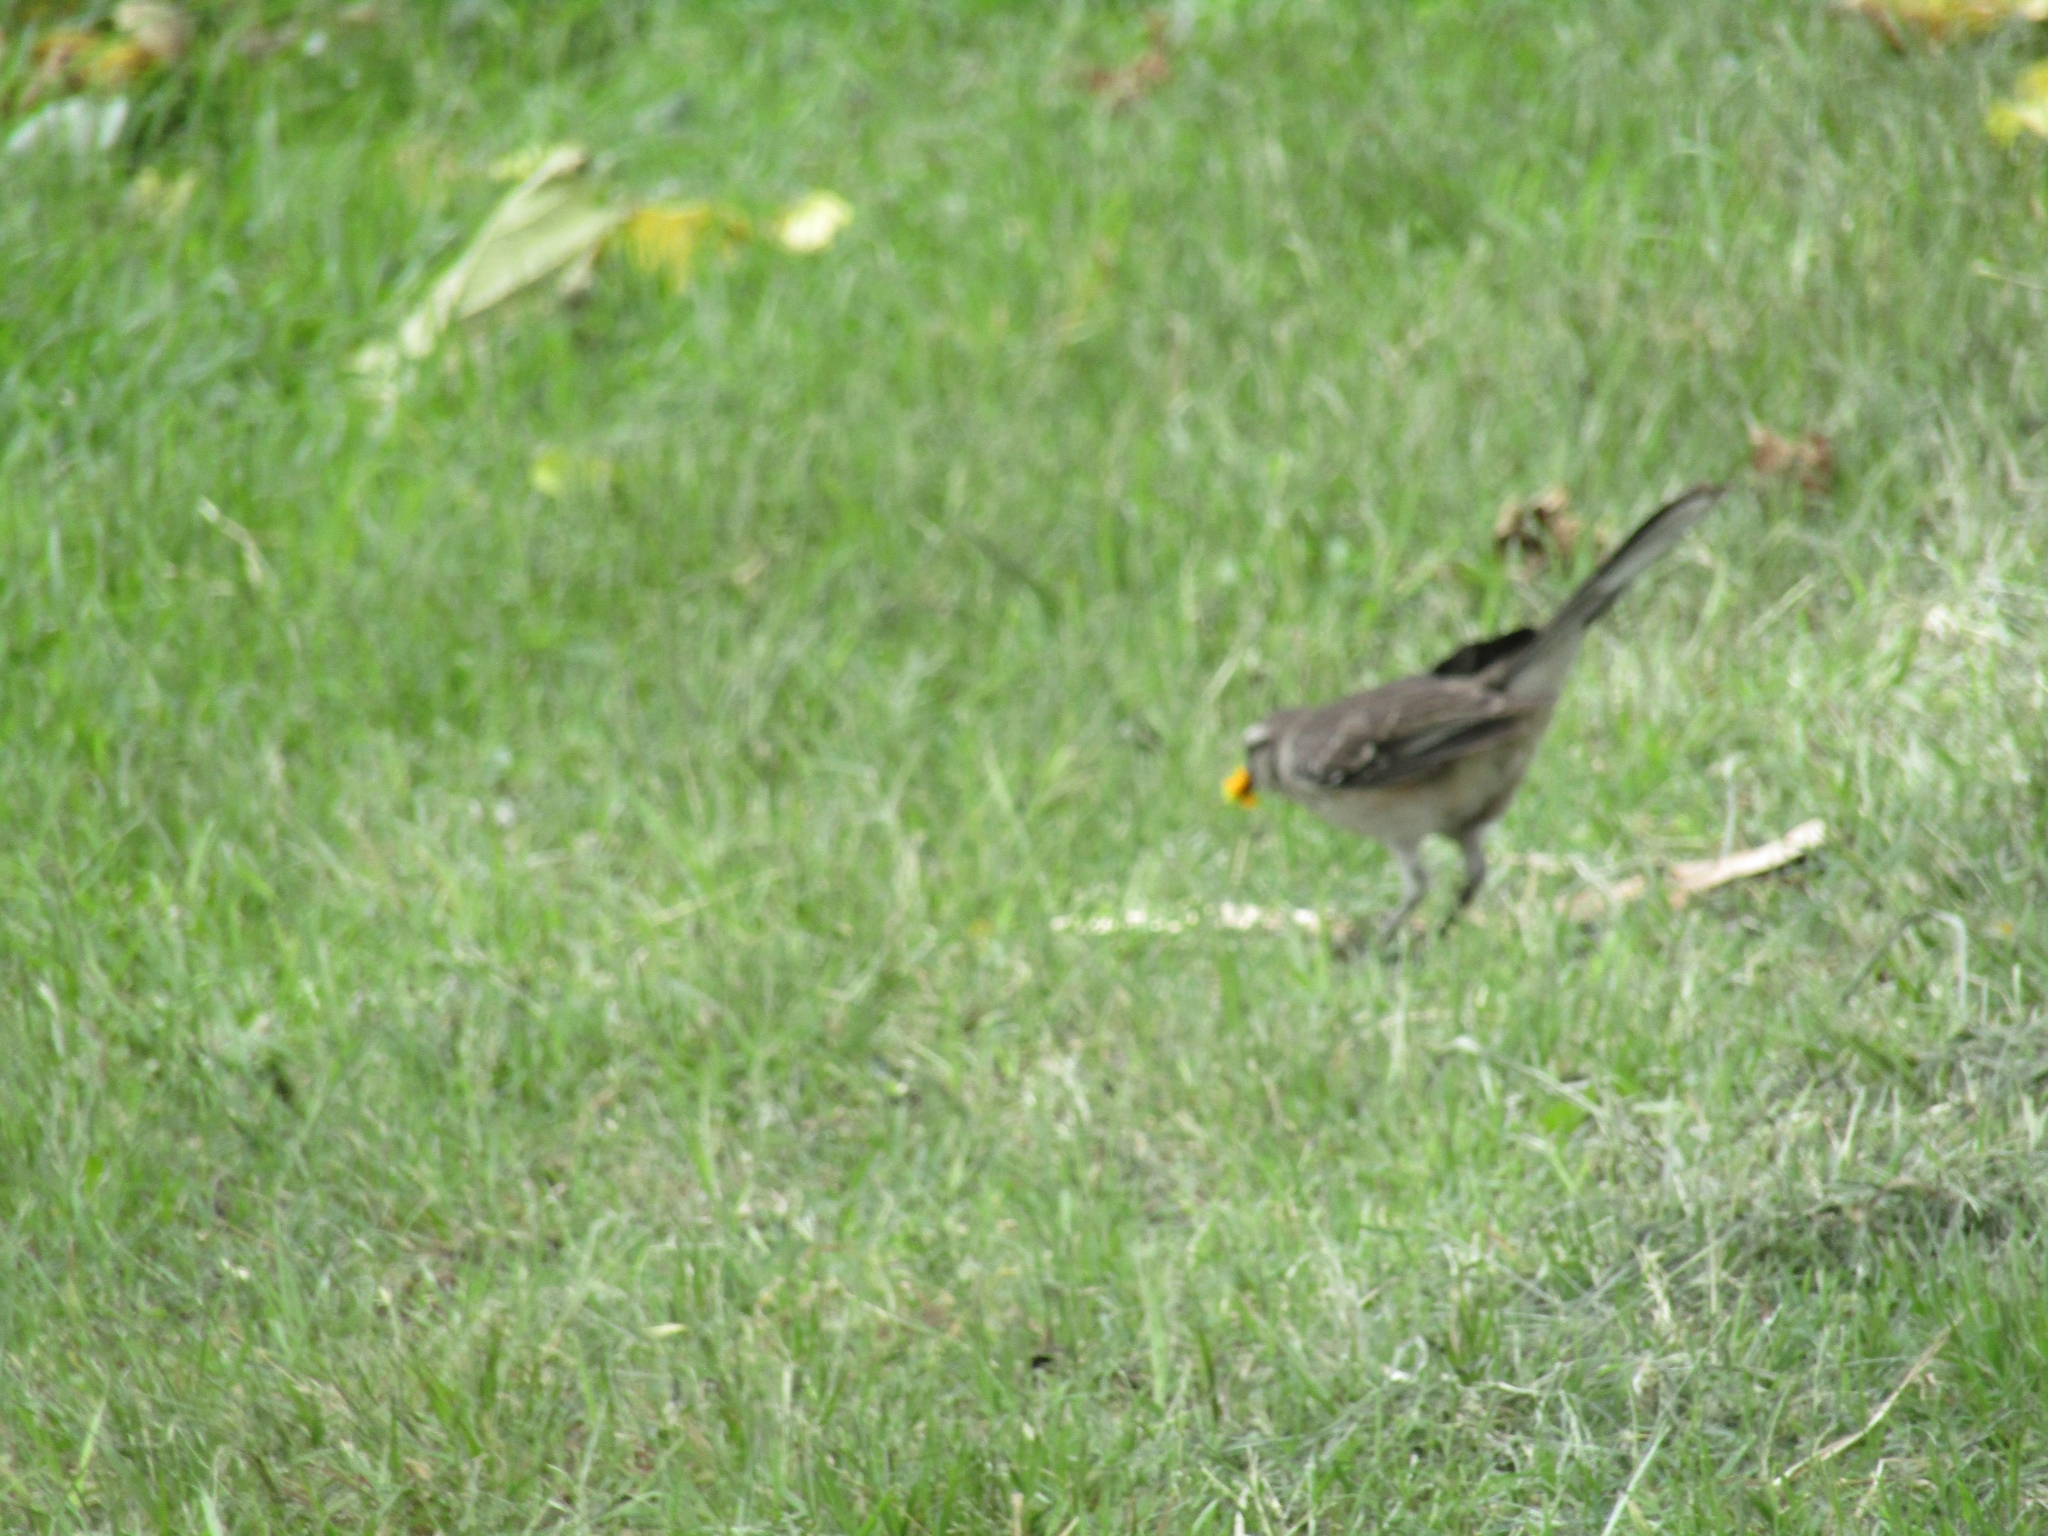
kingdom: Animalia
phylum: Chordata
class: Aves
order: Passeriformes
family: Mimidae
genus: Mimus
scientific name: Mimus saturninus
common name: Chalk-browed mockingbird
